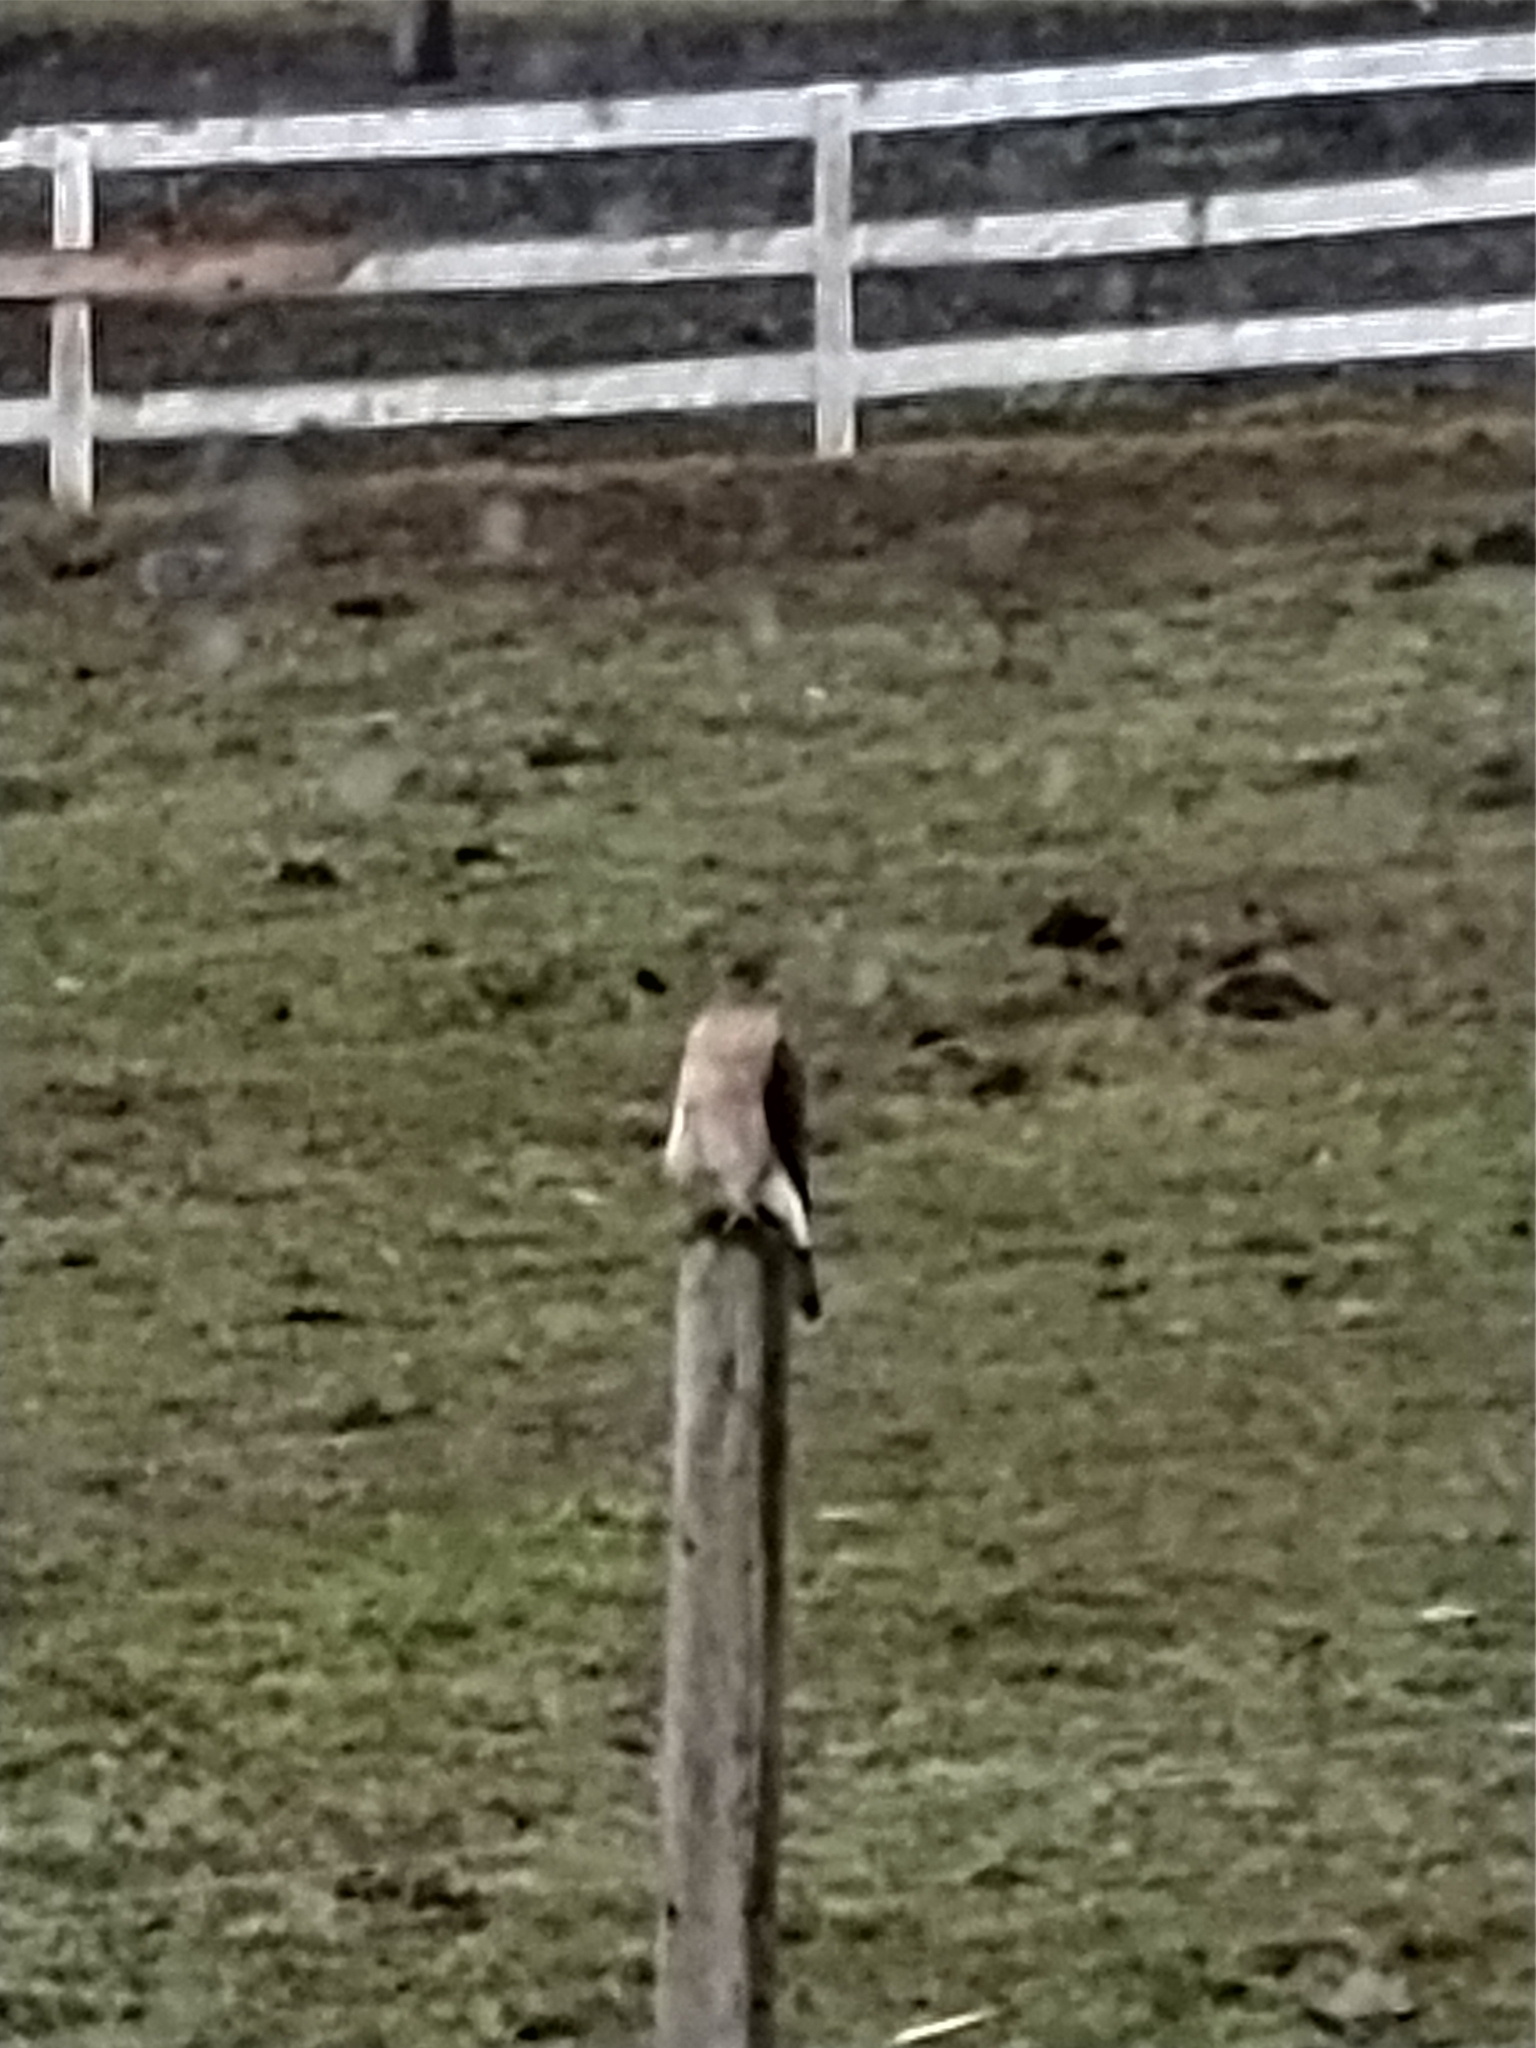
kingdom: Animalia
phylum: Chordata
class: Aves
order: Accipitriformes
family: Accipitridae
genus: Accipiter
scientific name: Accipiter cooperii
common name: Cooper's hawk
